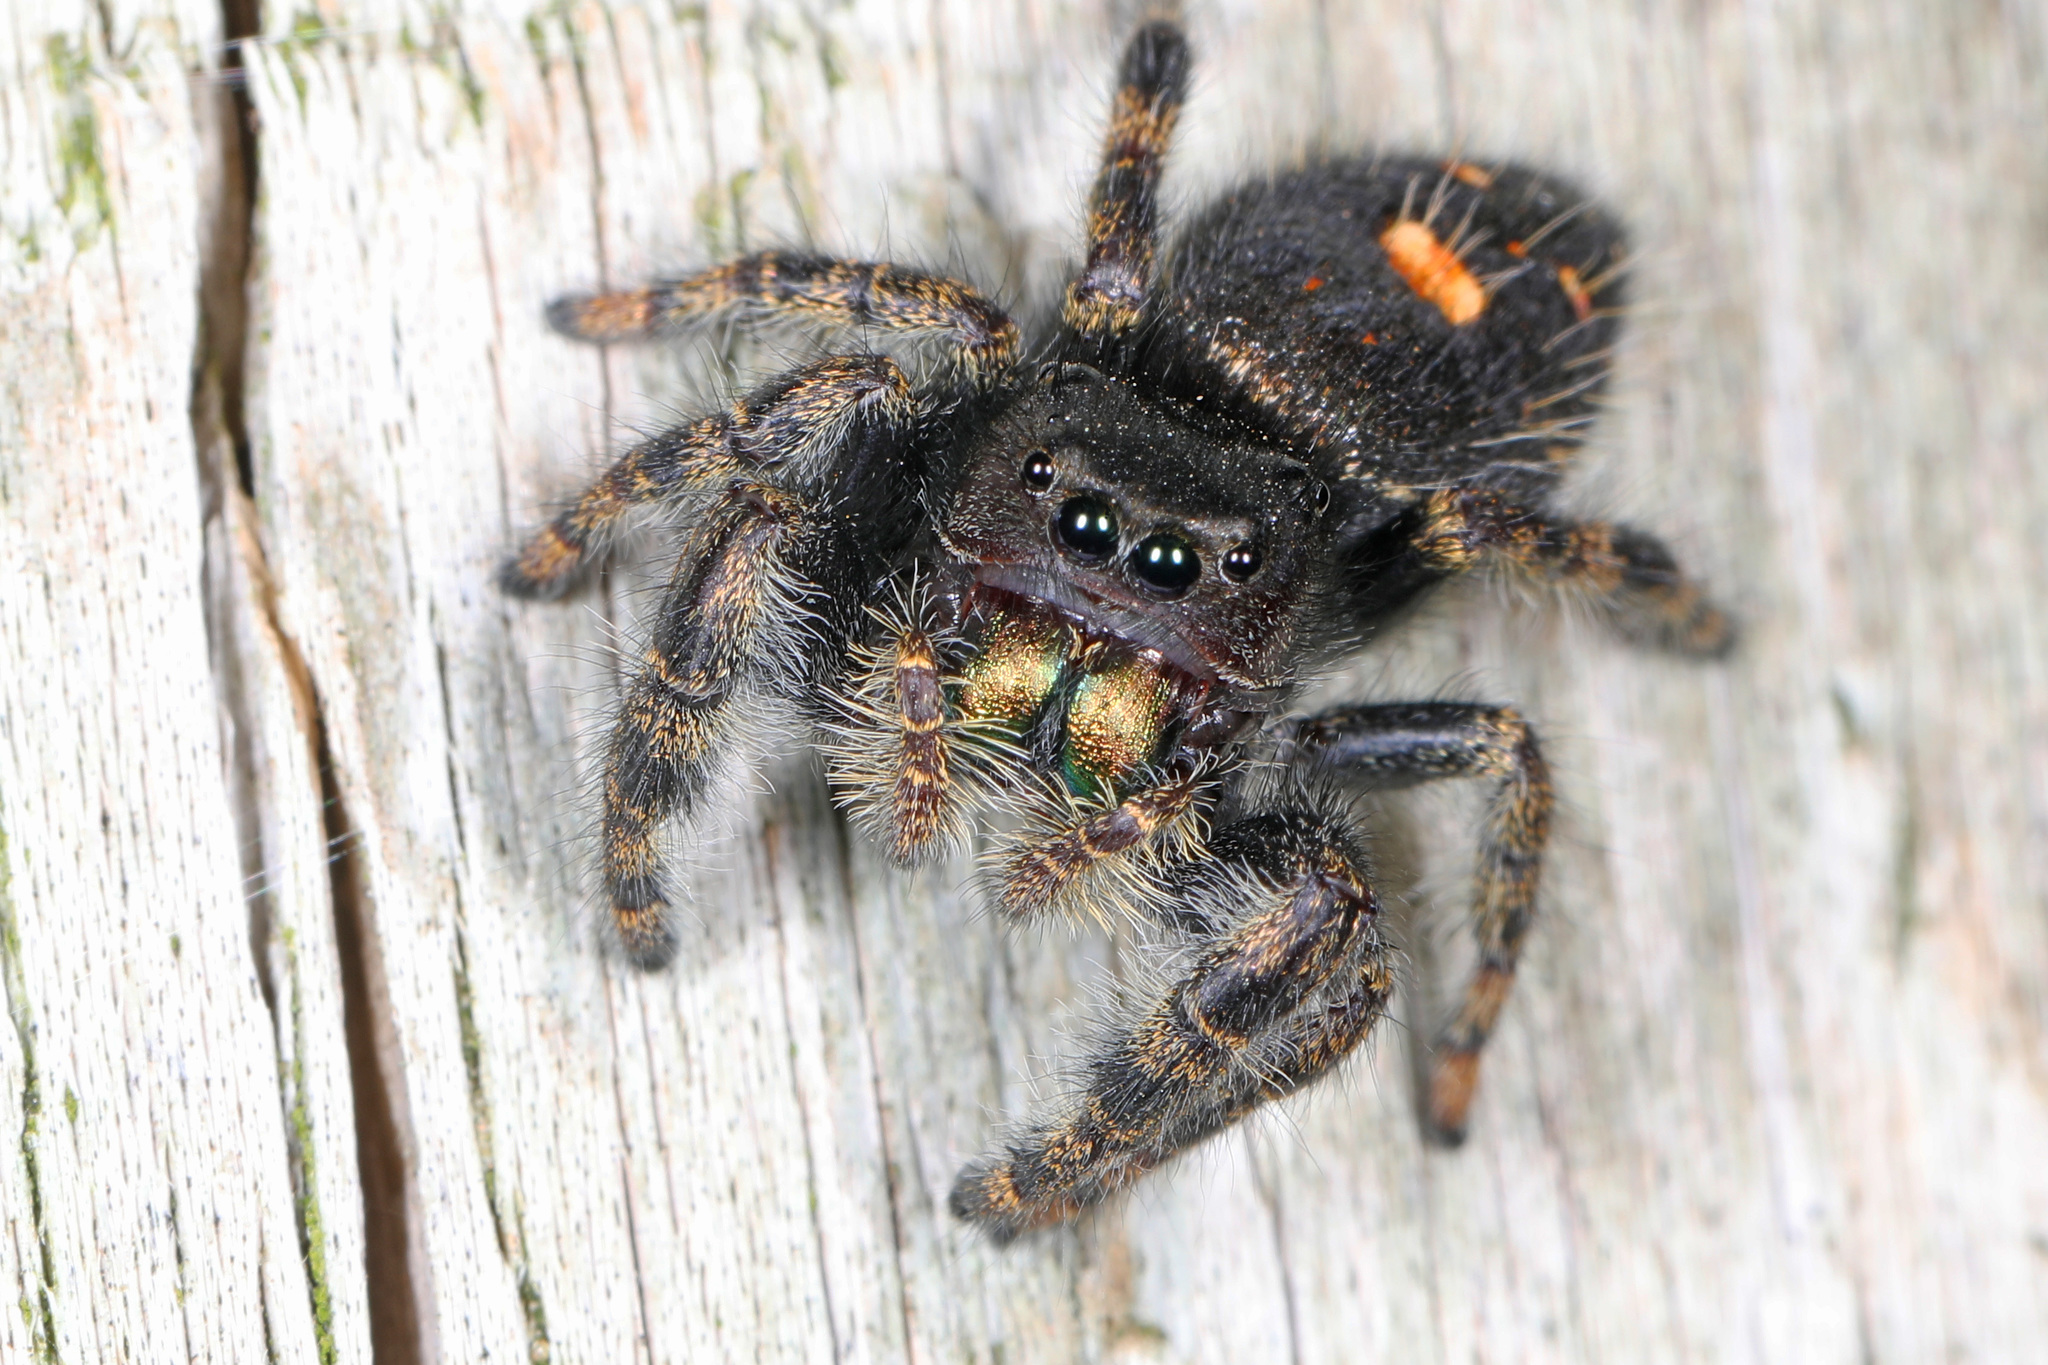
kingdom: Animalia
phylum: Arthropoda
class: Arachnida
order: Araneae
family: Salticidae
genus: Phidippus
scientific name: Phidippus audax
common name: Bold jumper
